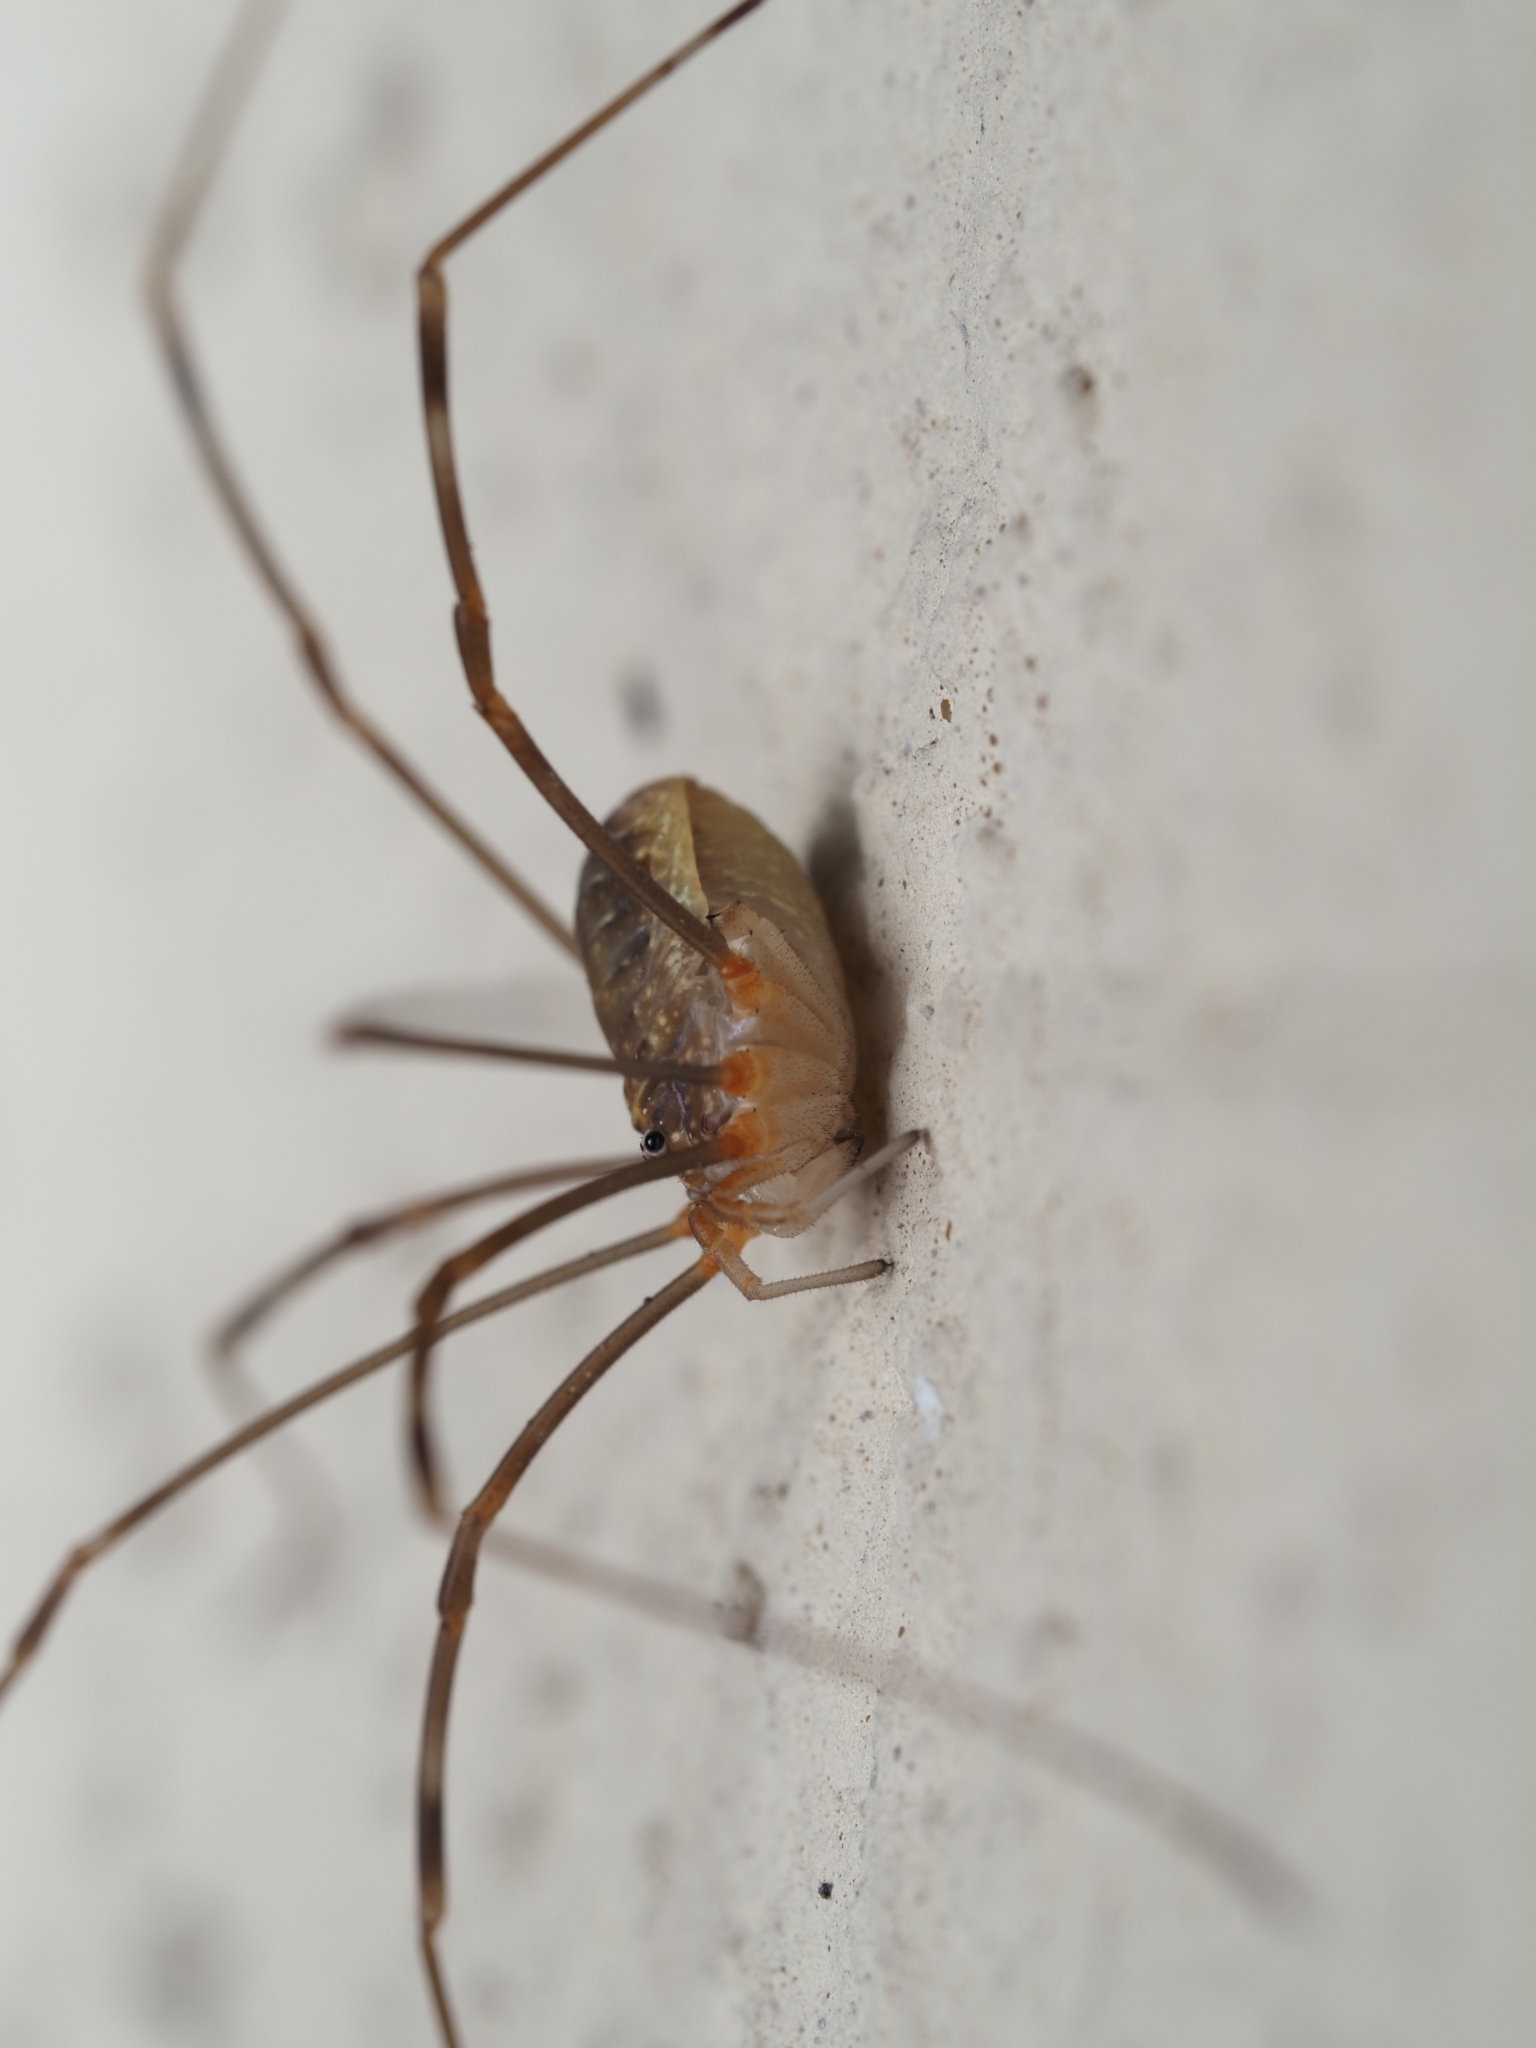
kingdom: Animalia
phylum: Arthropoda
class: Arachnida
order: Opiliones
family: Phalangiidae
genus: Opilio
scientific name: Opilio canestrinii
